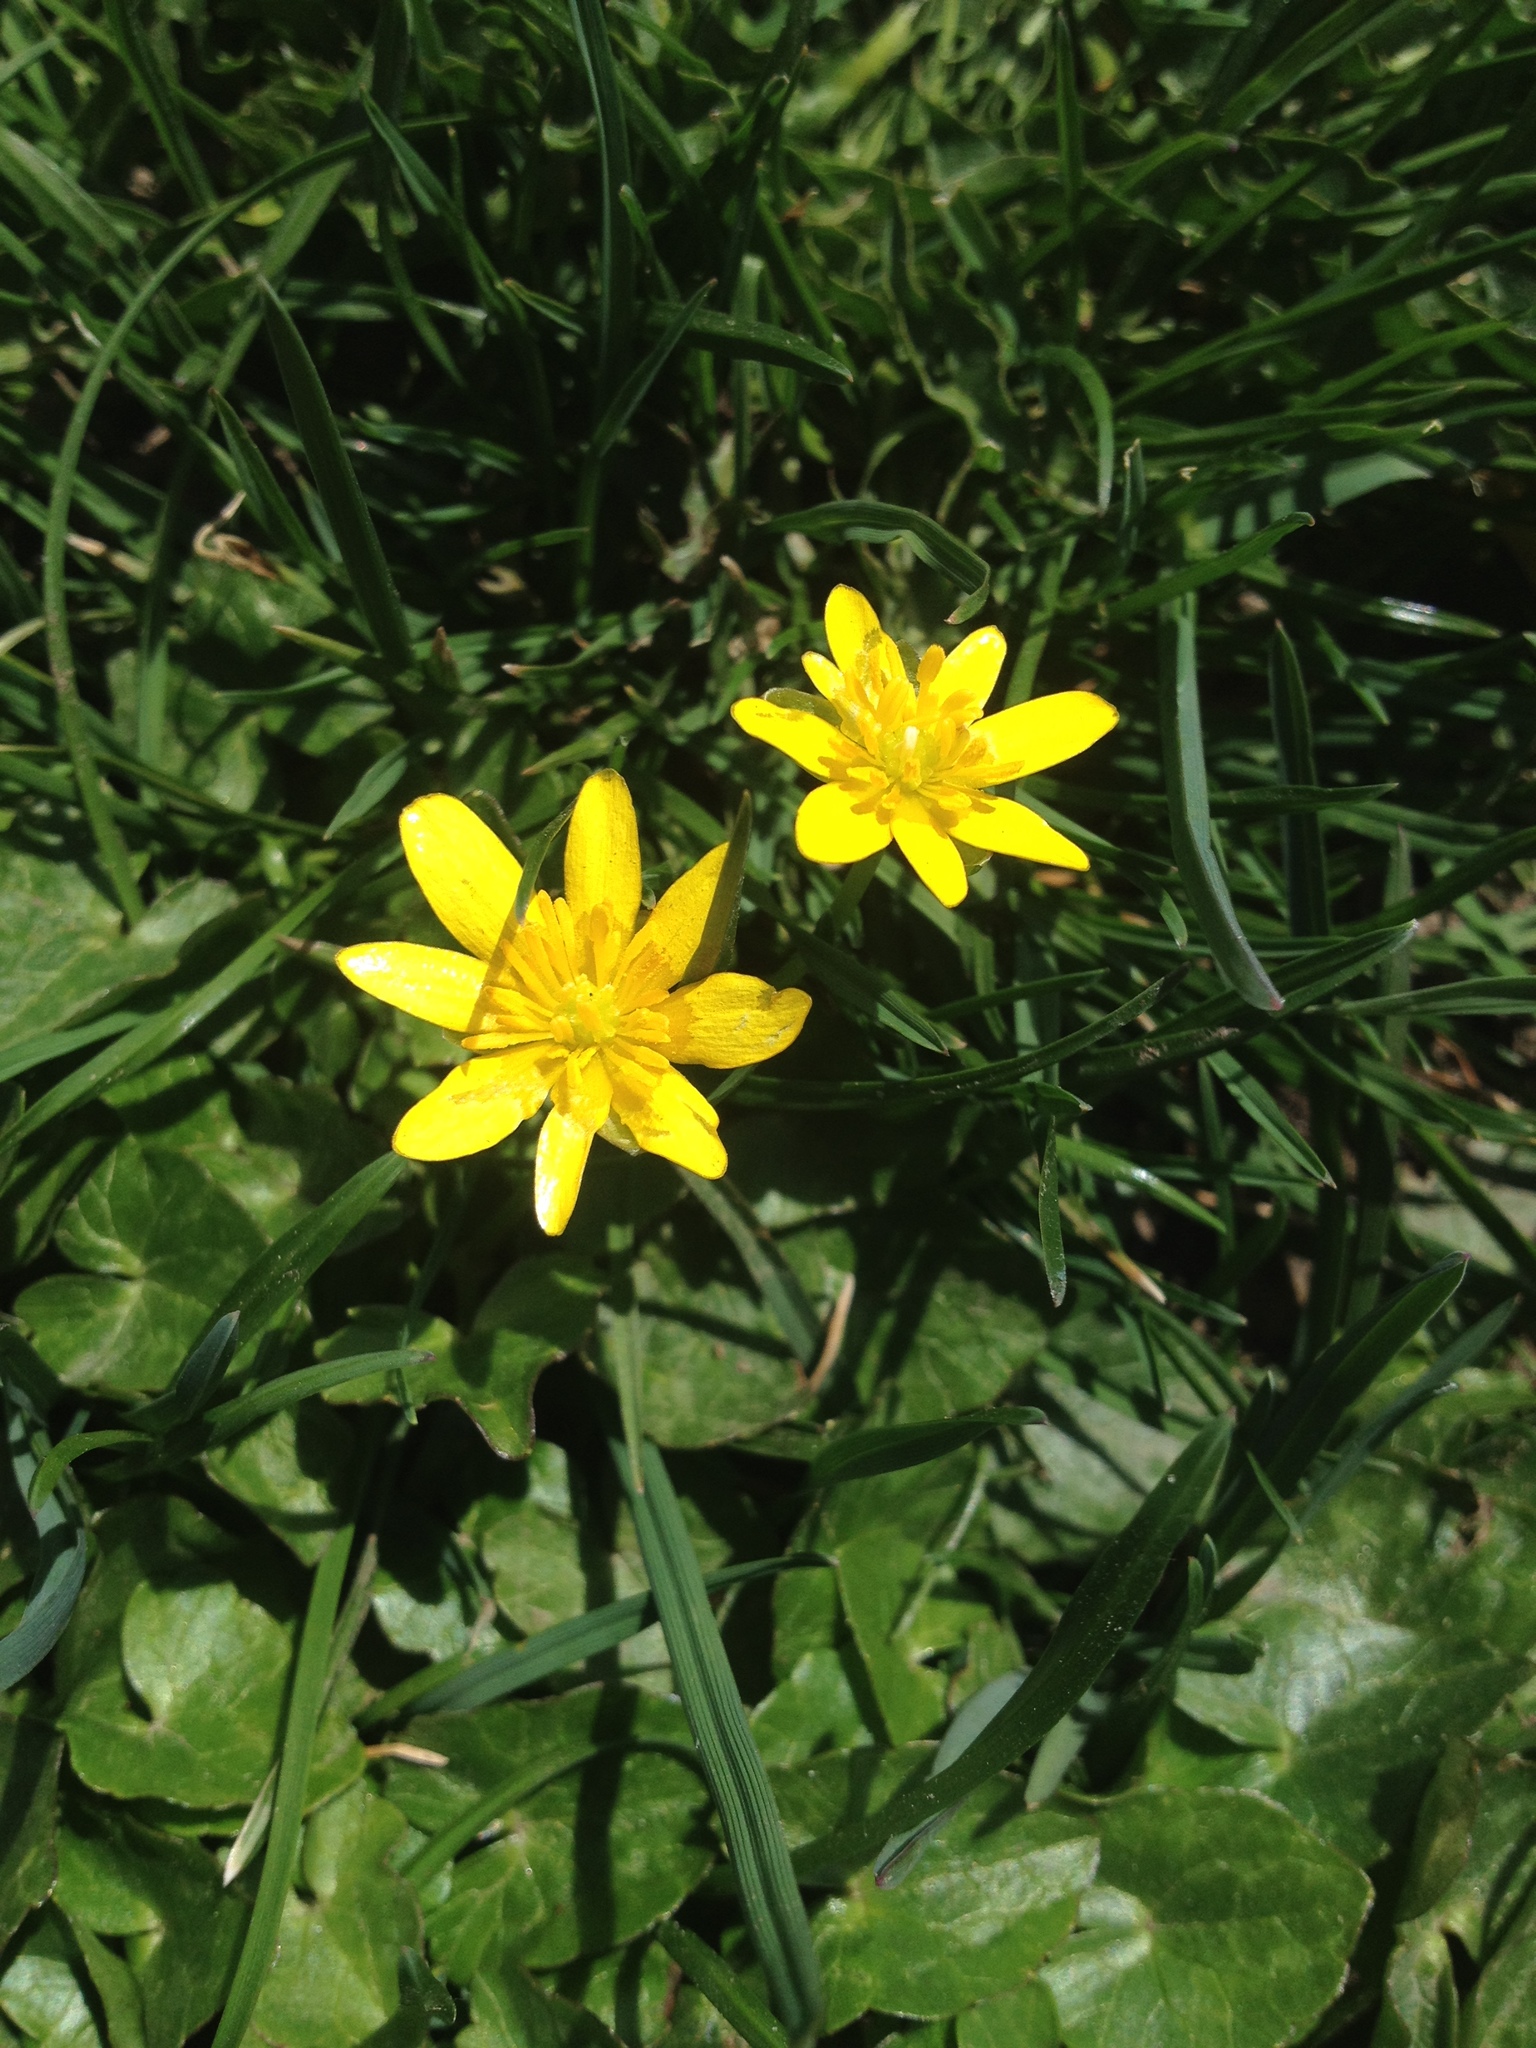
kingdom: Plantae
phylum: Tracheophyta
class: Magnoliopsida
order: Ranunculales
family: Ranunculaceae
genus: Ficaria
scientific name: Ficaria verna
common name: Lesser celandine
